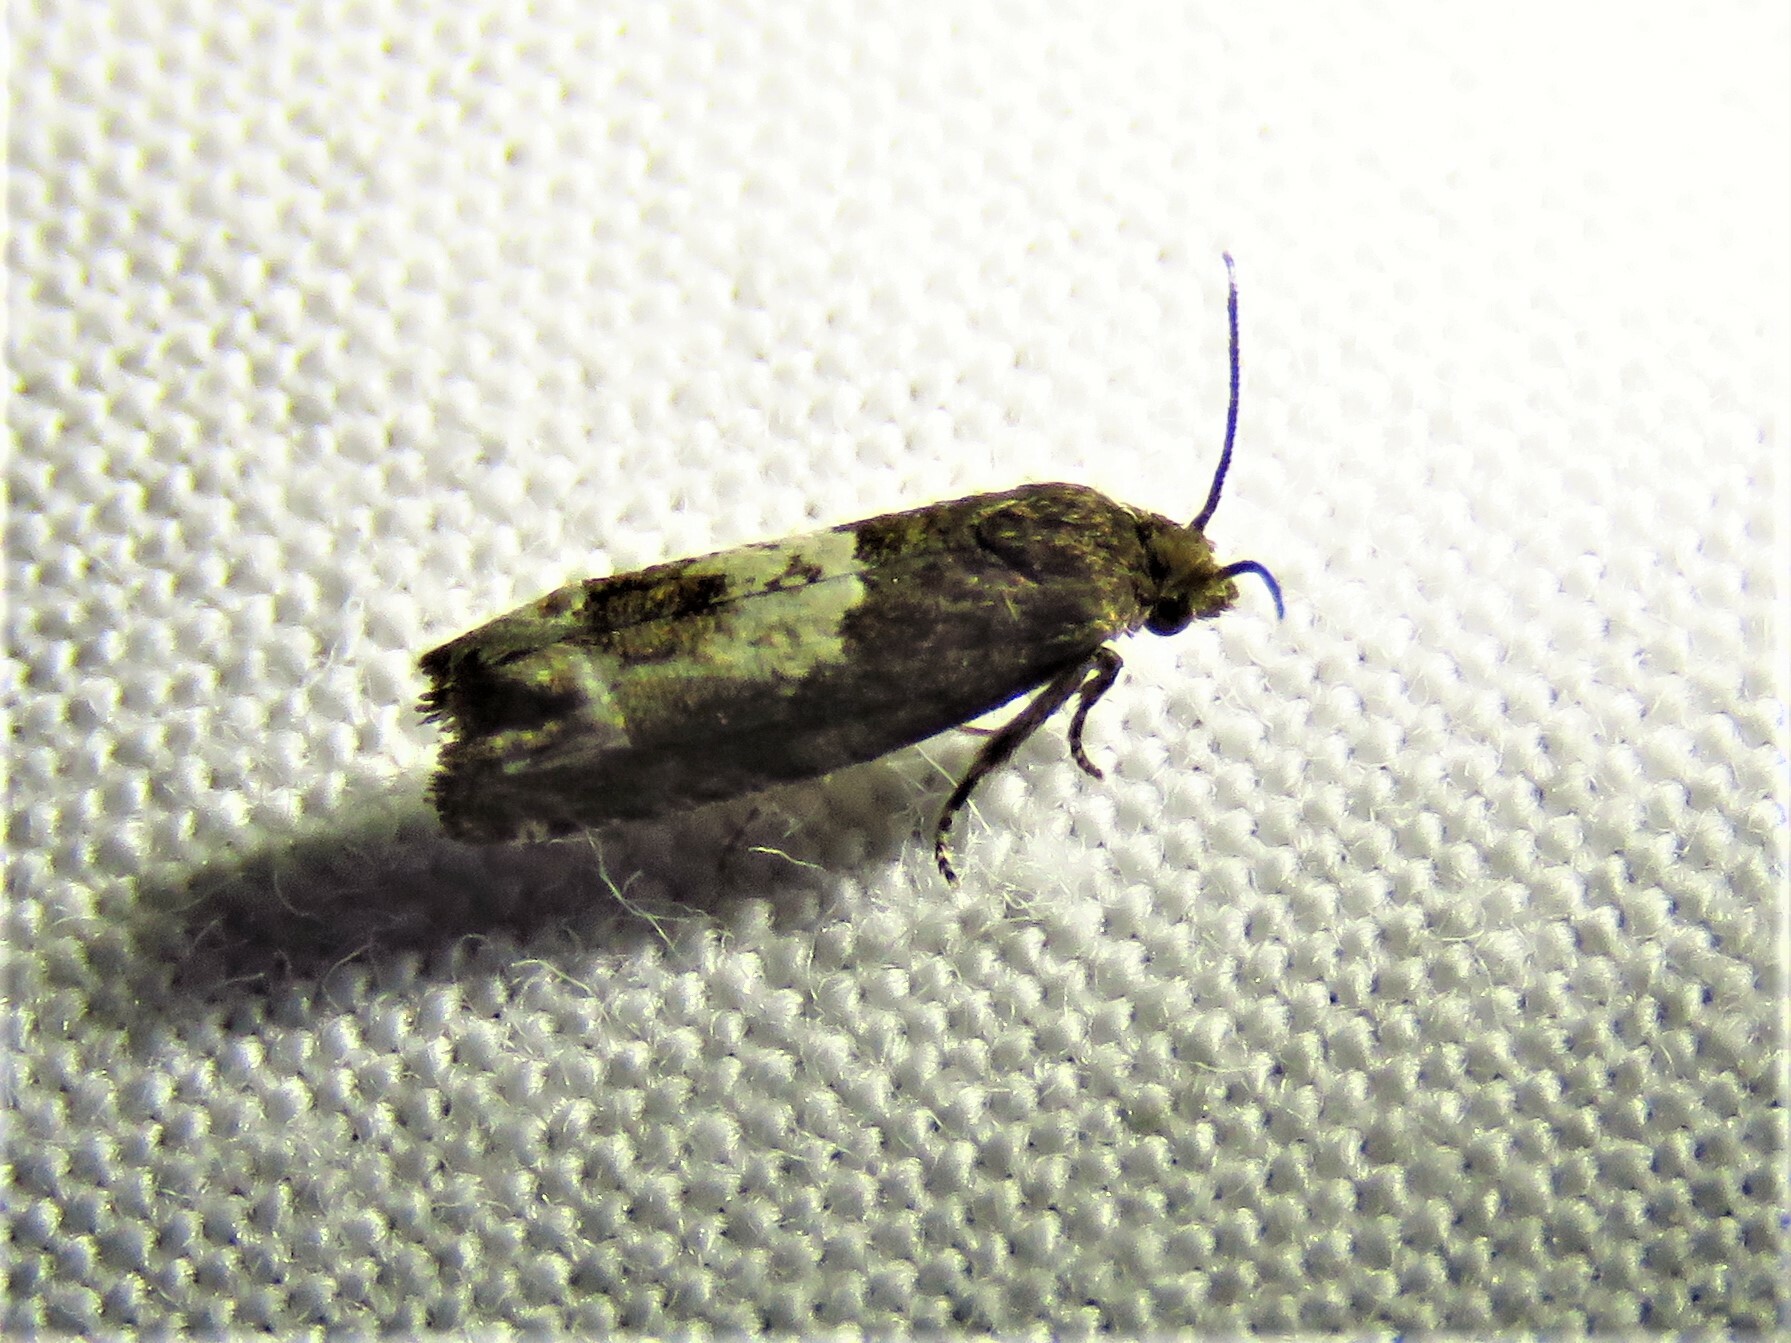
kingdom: Animalia
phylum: Arthropoda
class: Insecta
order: Lepidoptera
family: Tortricidae
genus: Epiblema
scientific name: Epiblema otiosana
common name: Bidens borer moth
